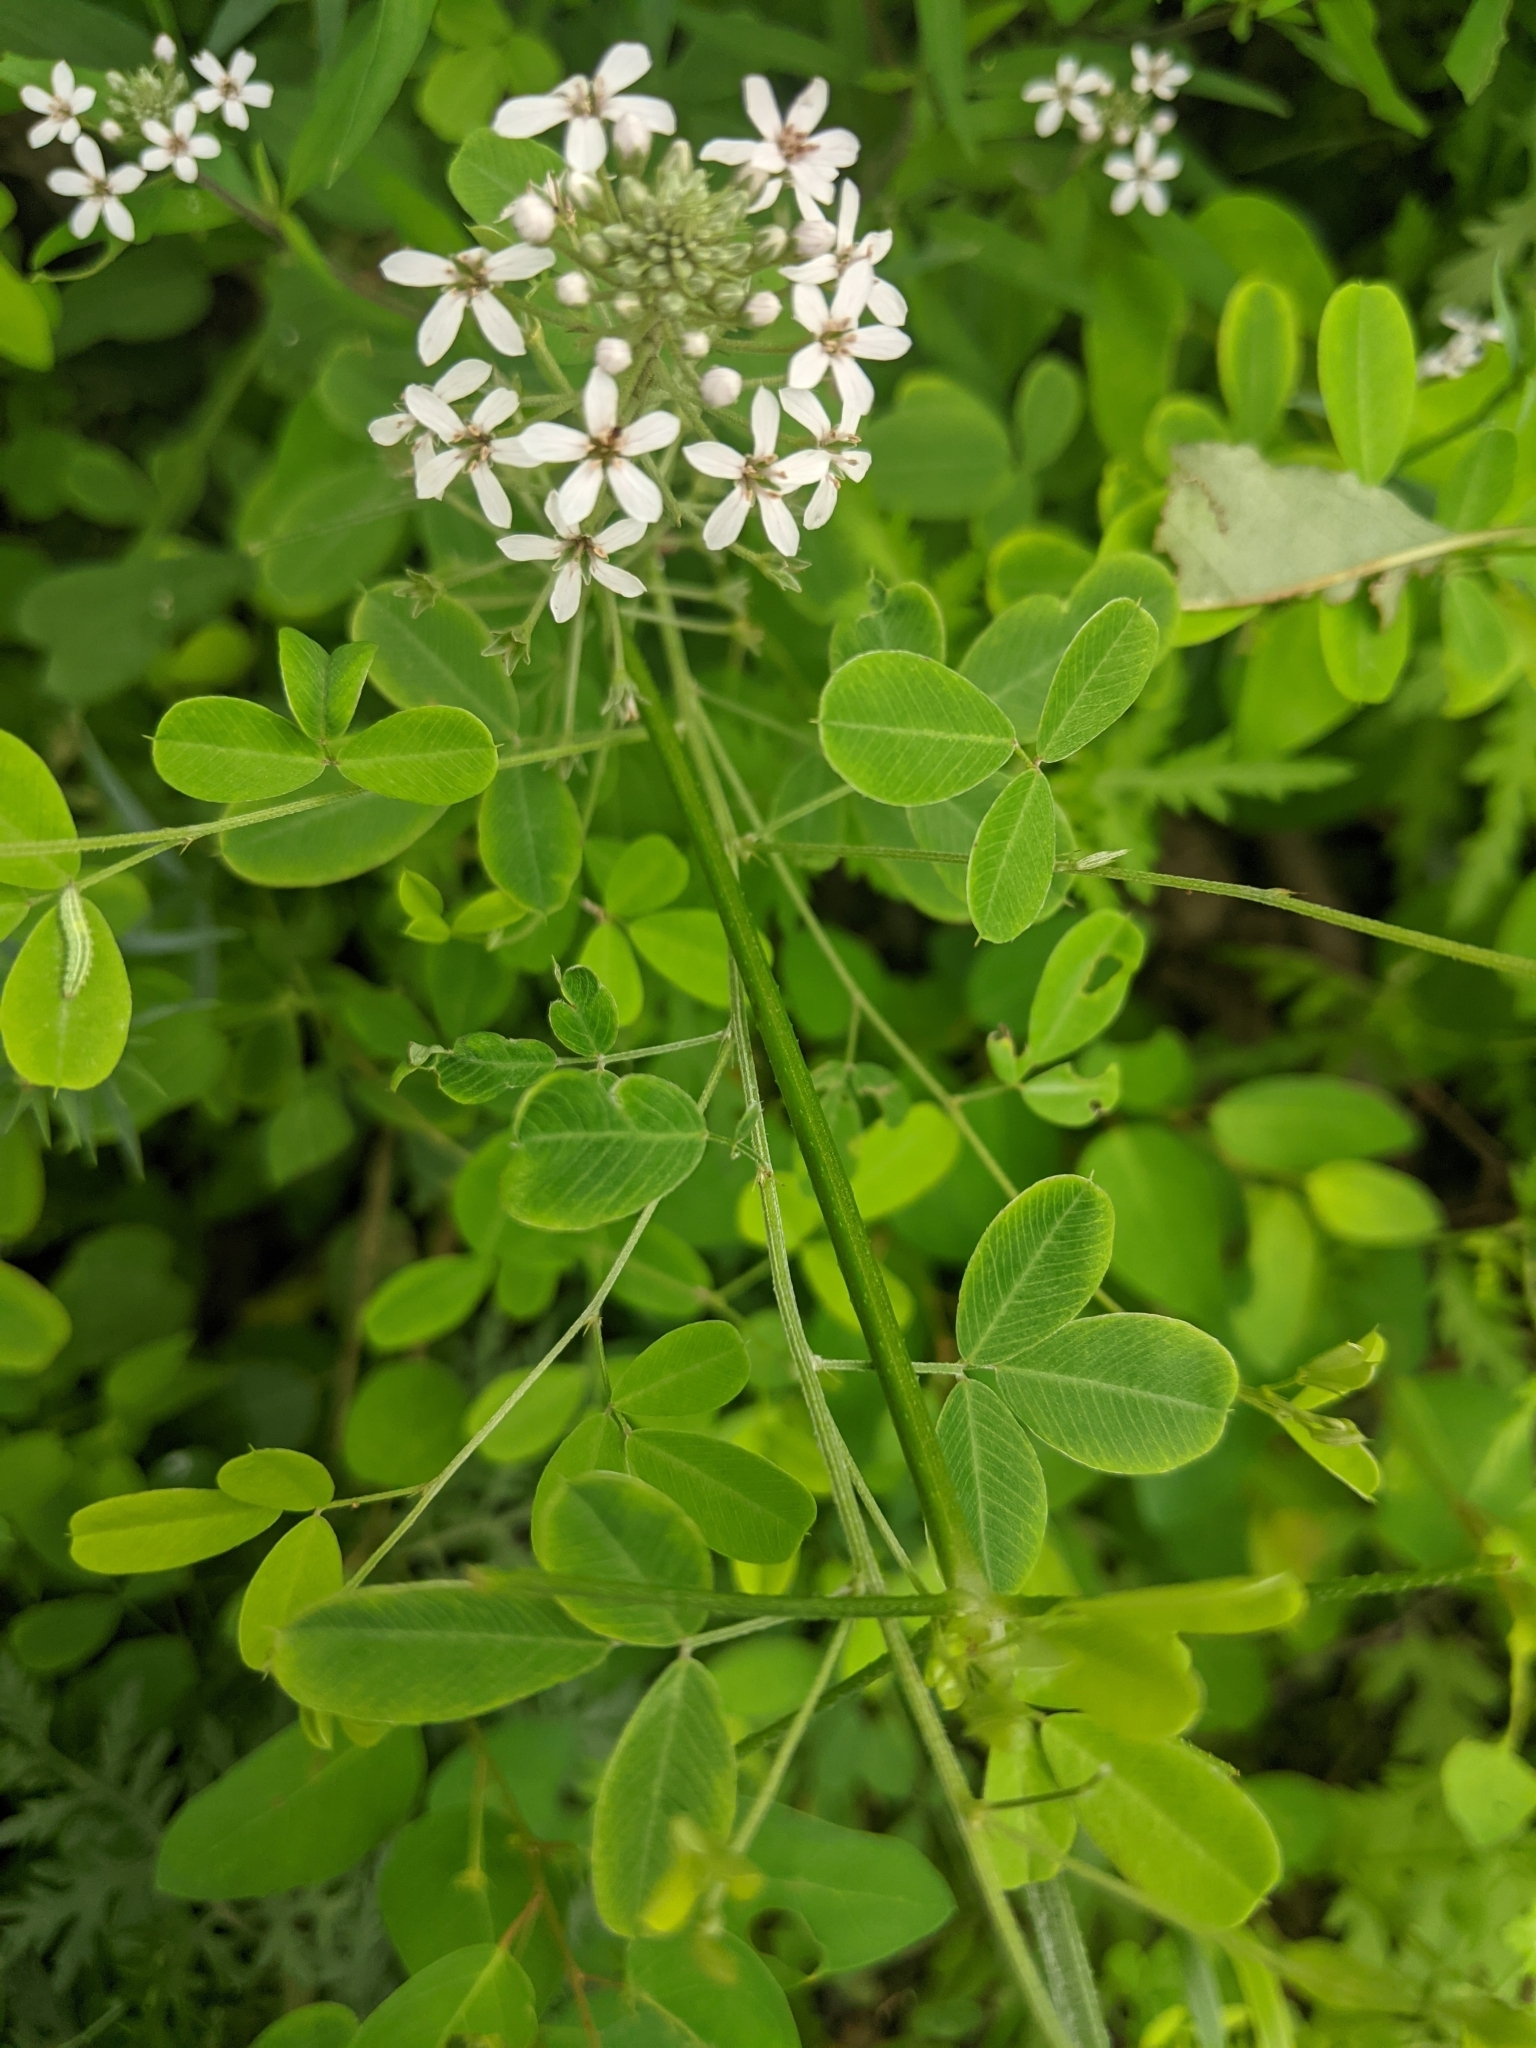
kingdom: Plantae
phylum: Tracheophyta
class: Magnoliopsida
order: Ericales
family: Primulaceae
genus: Lysimachia
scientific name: Lysimachia pentapetala
